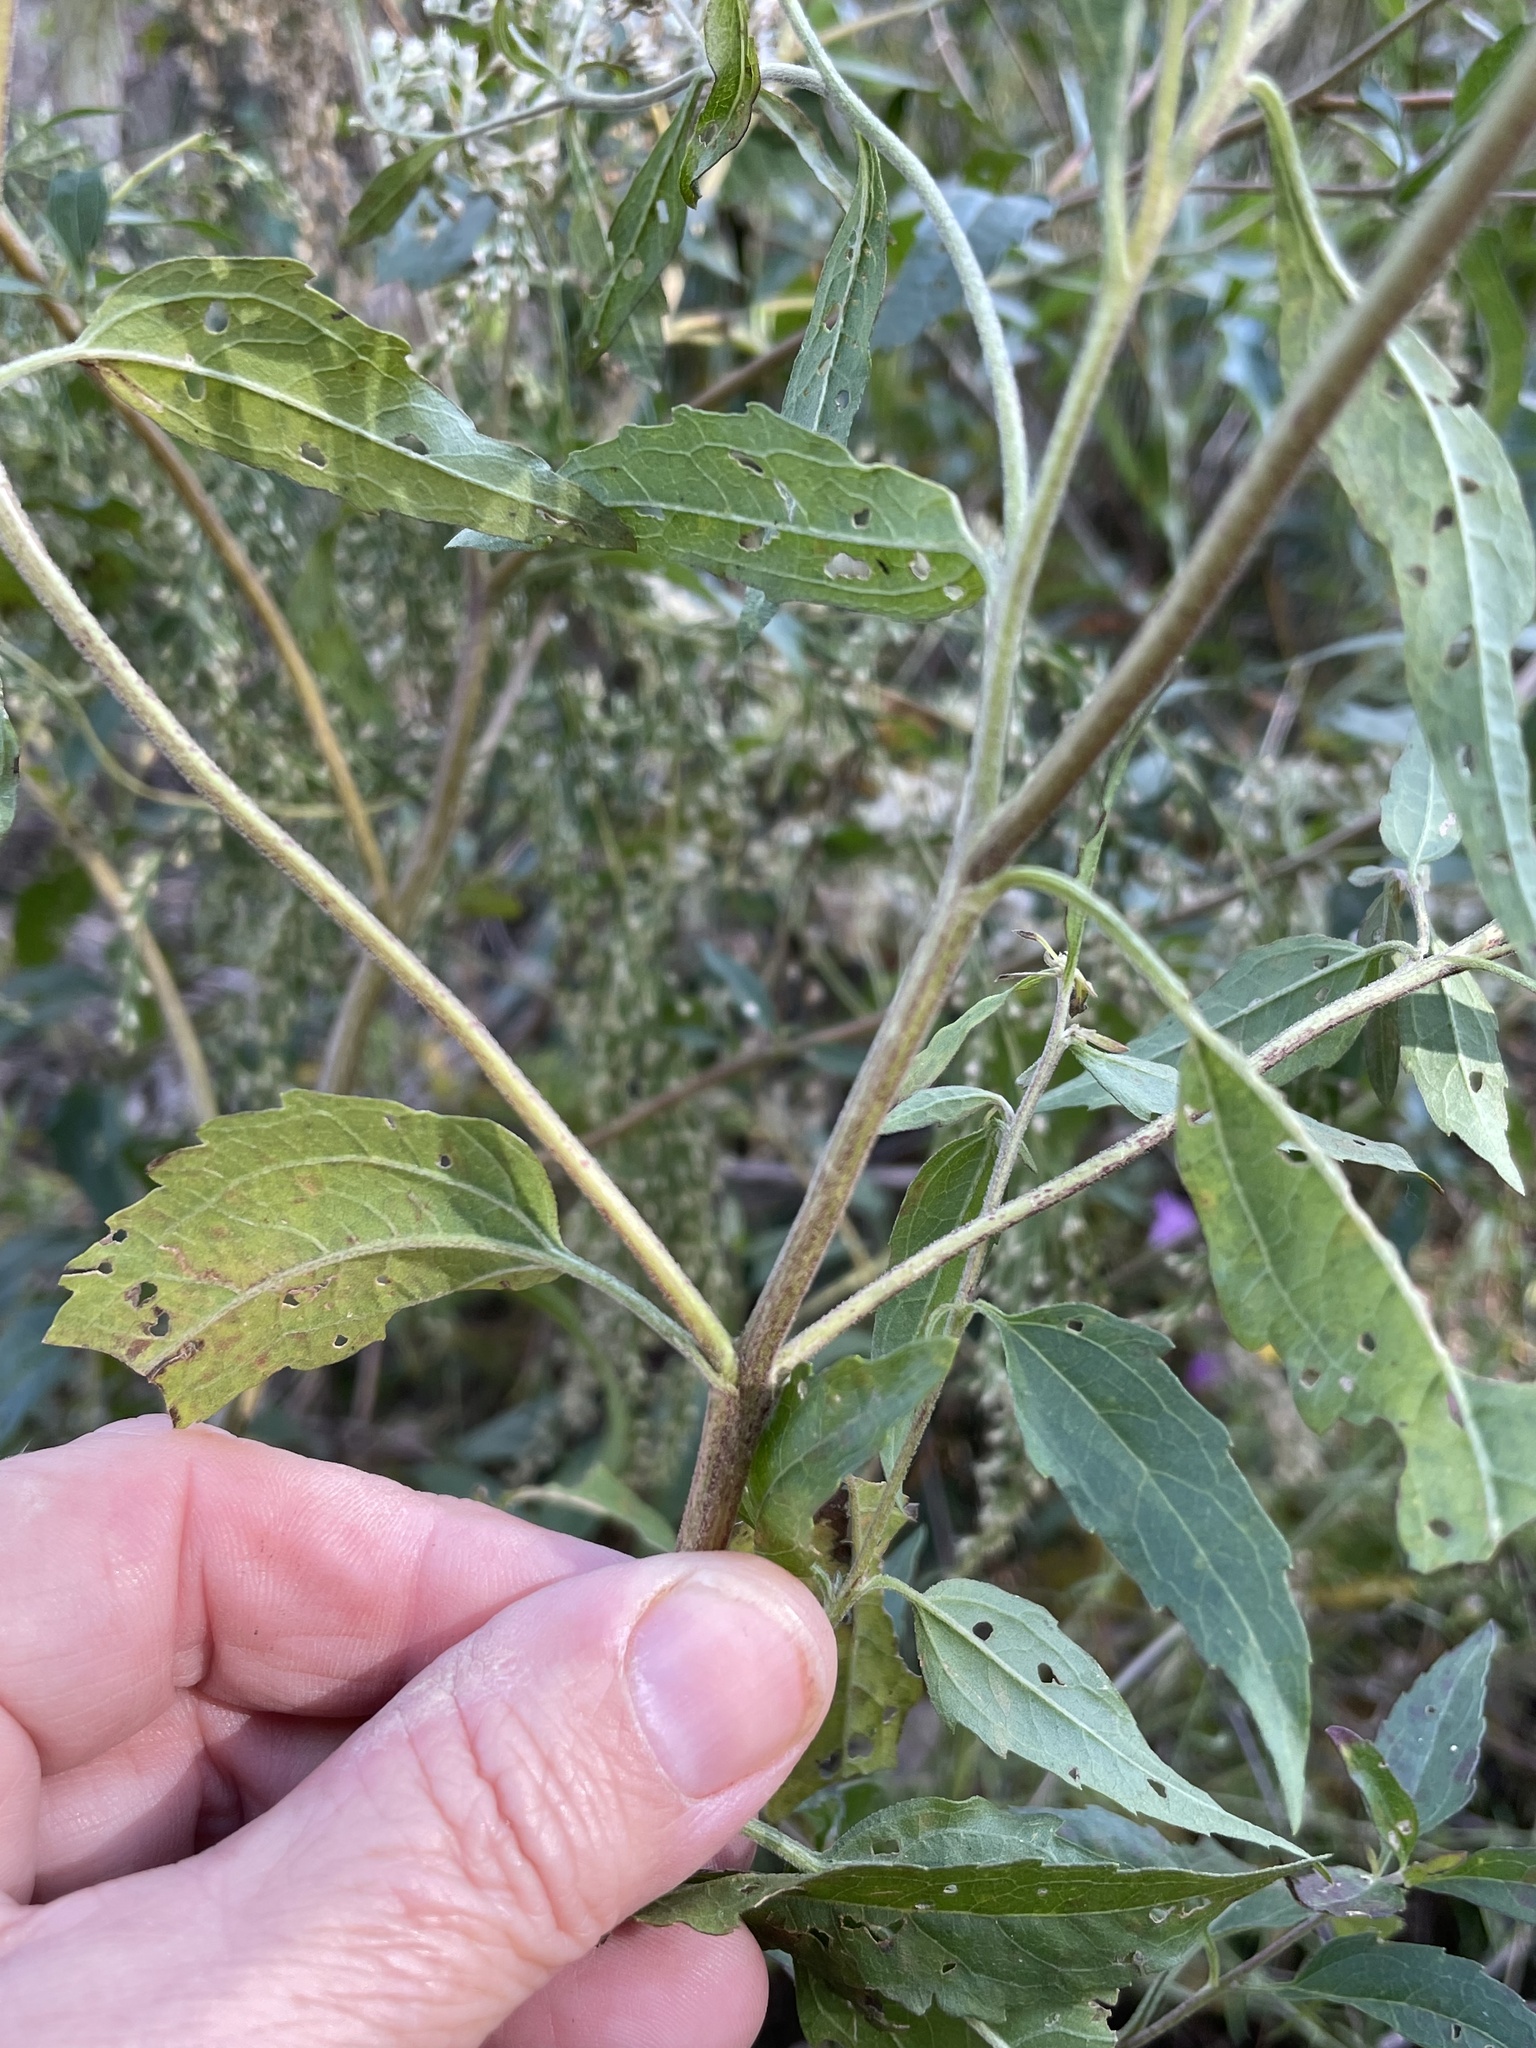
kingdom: Plantae
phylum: Tracheophyta
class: Magnoliopsida
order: Asterales
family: Asteraceae
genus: Eupatorium
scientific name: Eupatorium serotinum
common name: Late boneset
